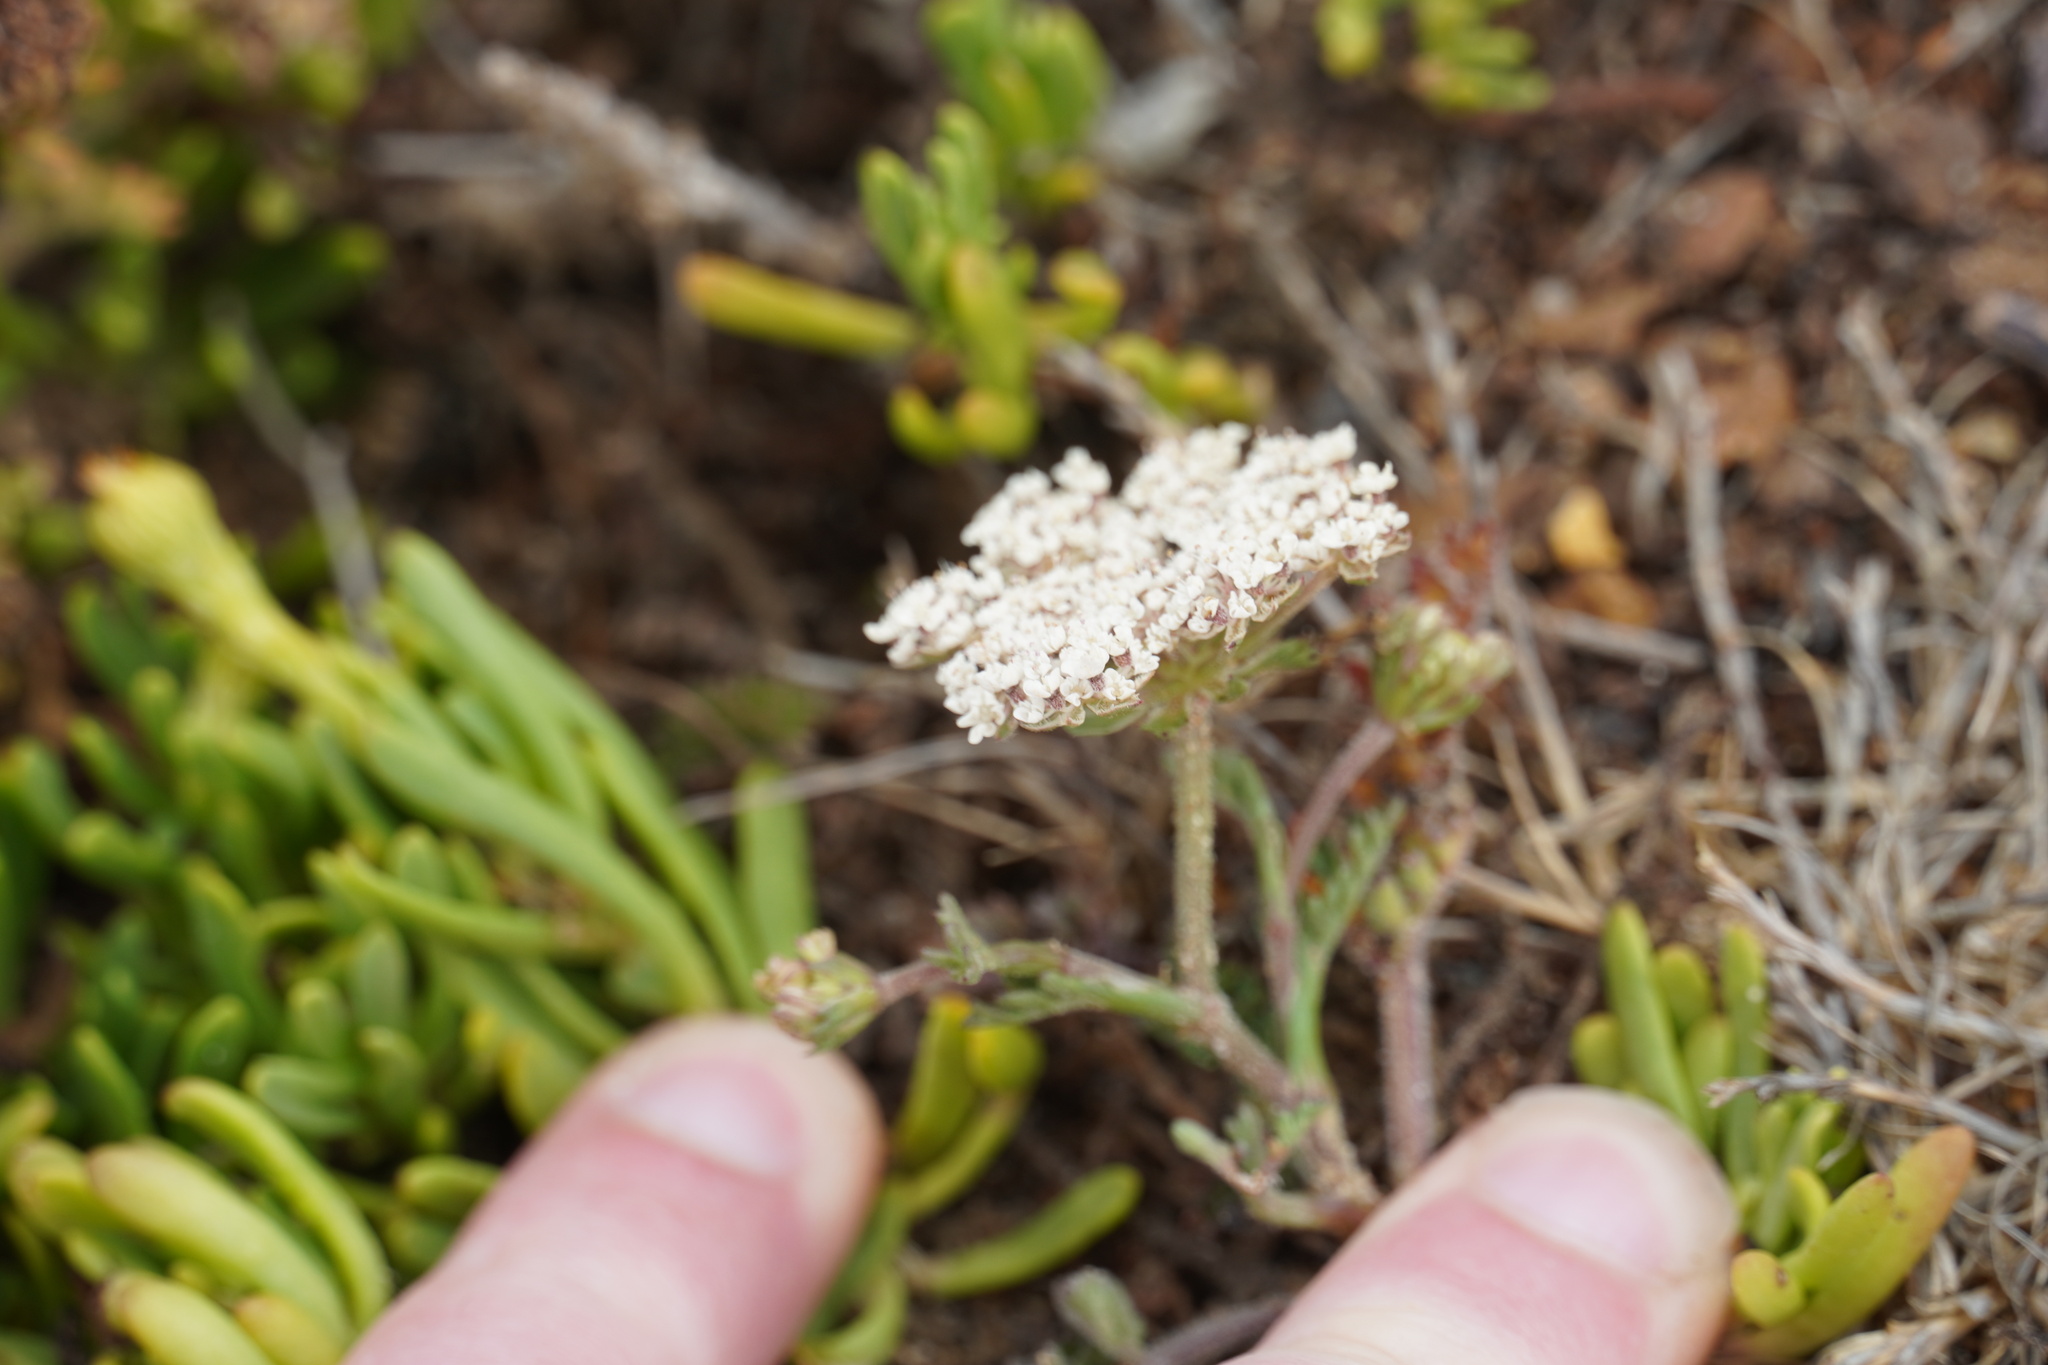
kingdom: Plantae
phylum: Tracheophyta
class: Magnoliopsida
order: Apiales
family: Apiaceae
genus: Daucus
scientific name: Daucus carota
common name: Wild carrot
